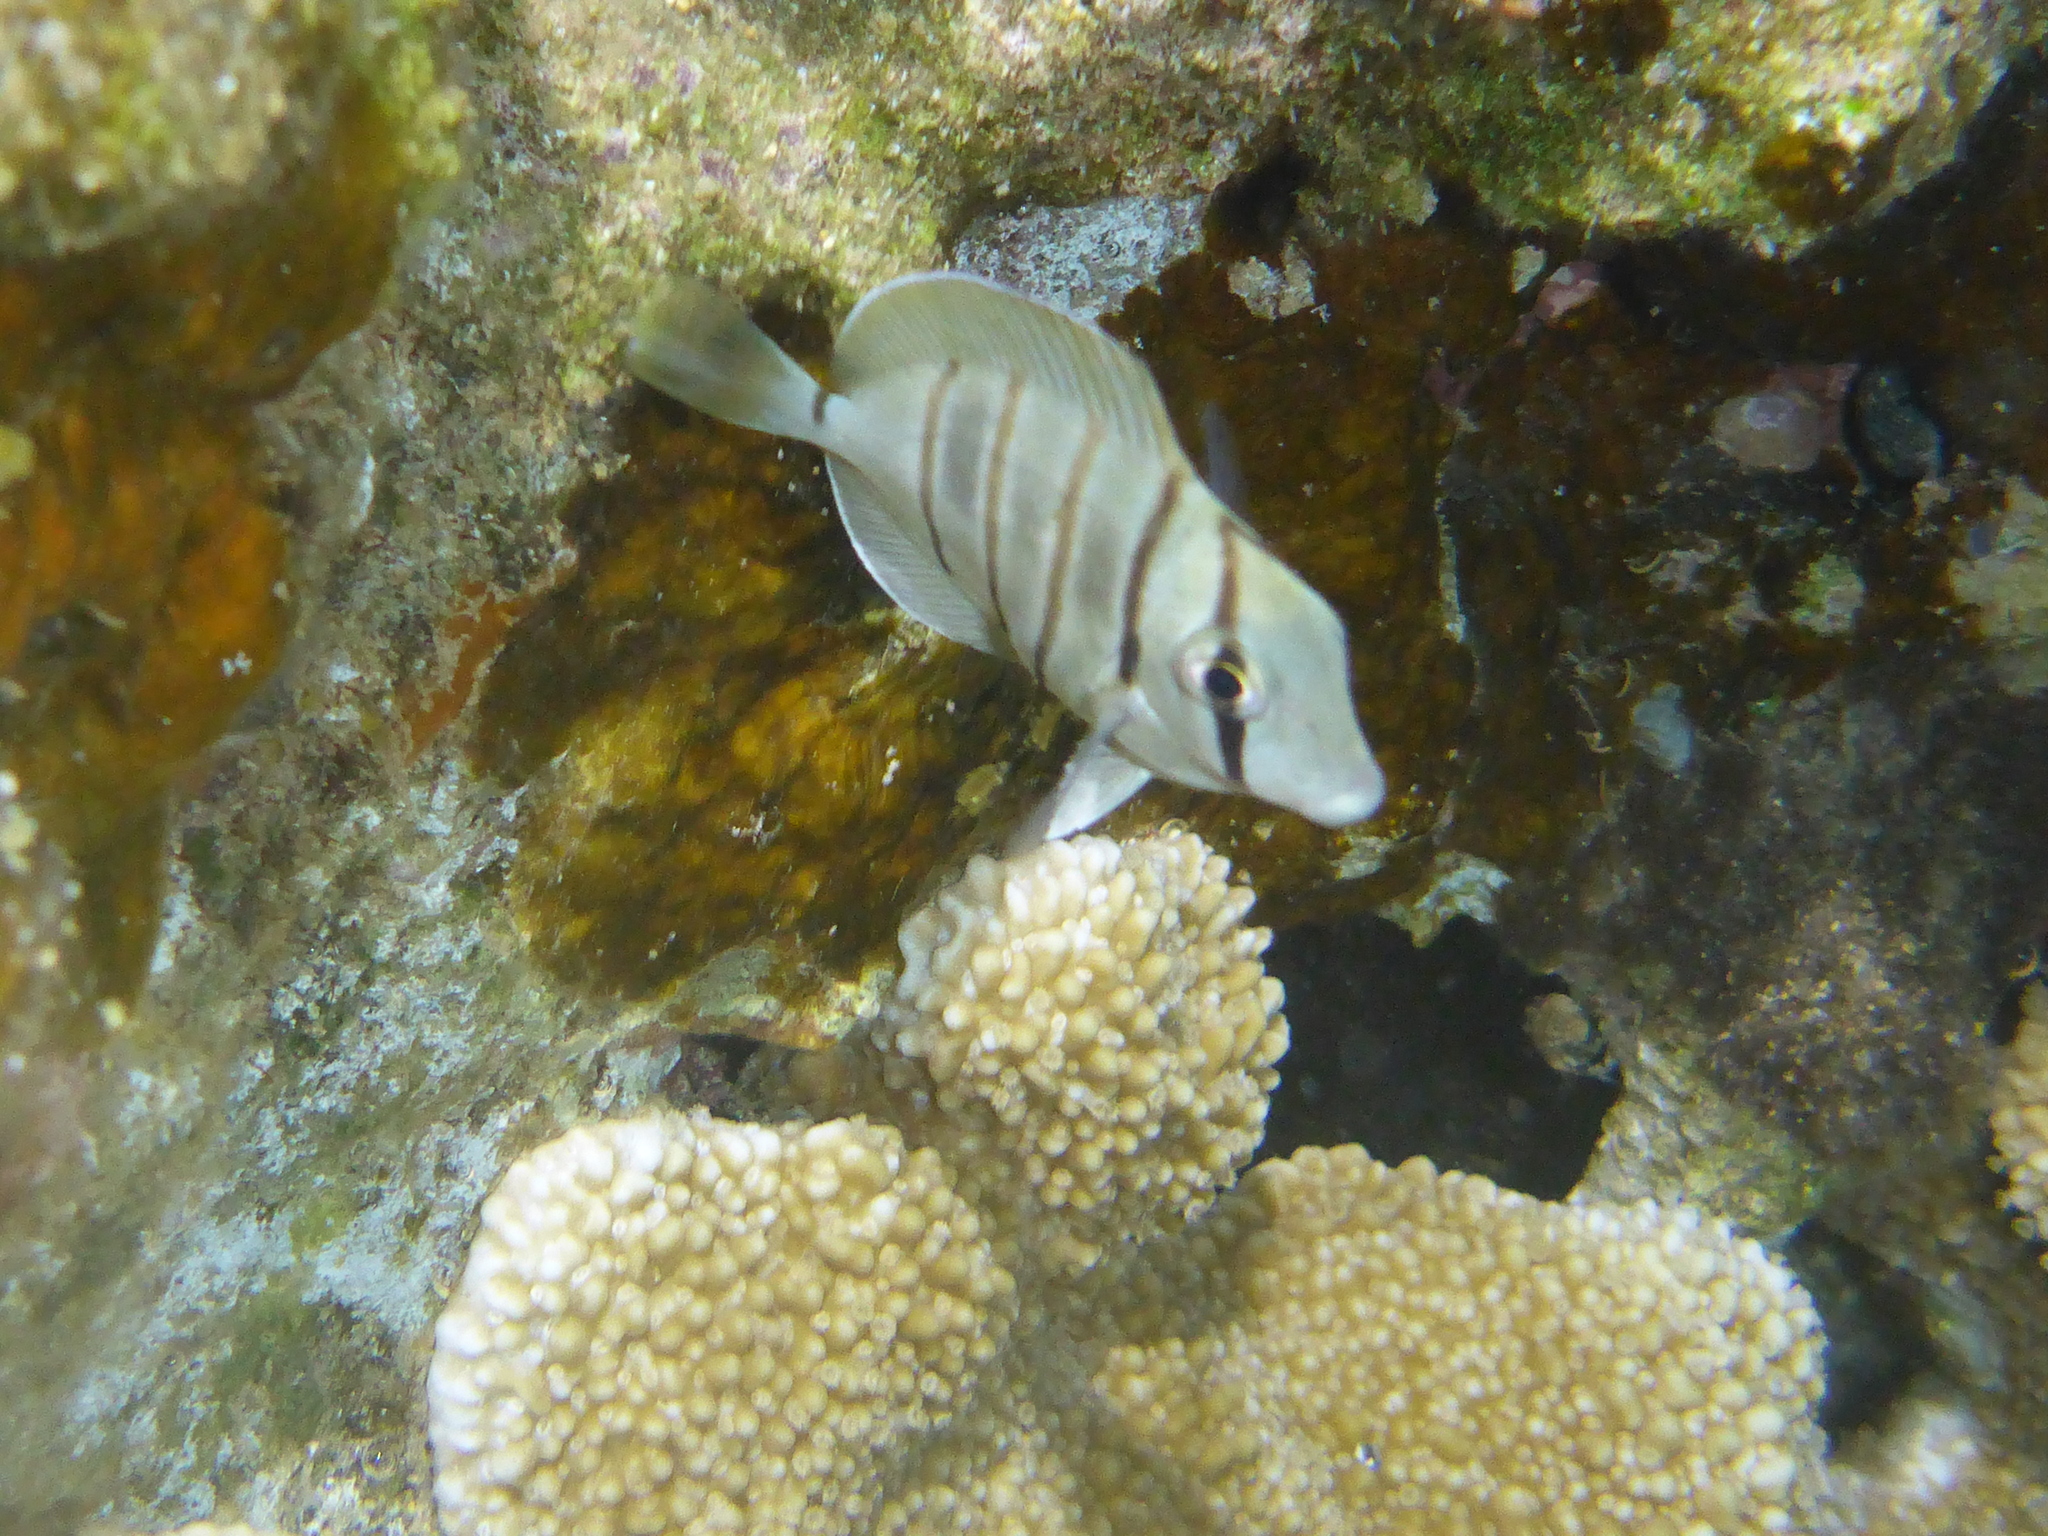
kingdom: Animalia
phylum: Chordata
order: Perciformes
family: Acanthuridae
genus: Acanthurus
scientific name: Acanthurus triostegus
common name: Convict surgeonfish
